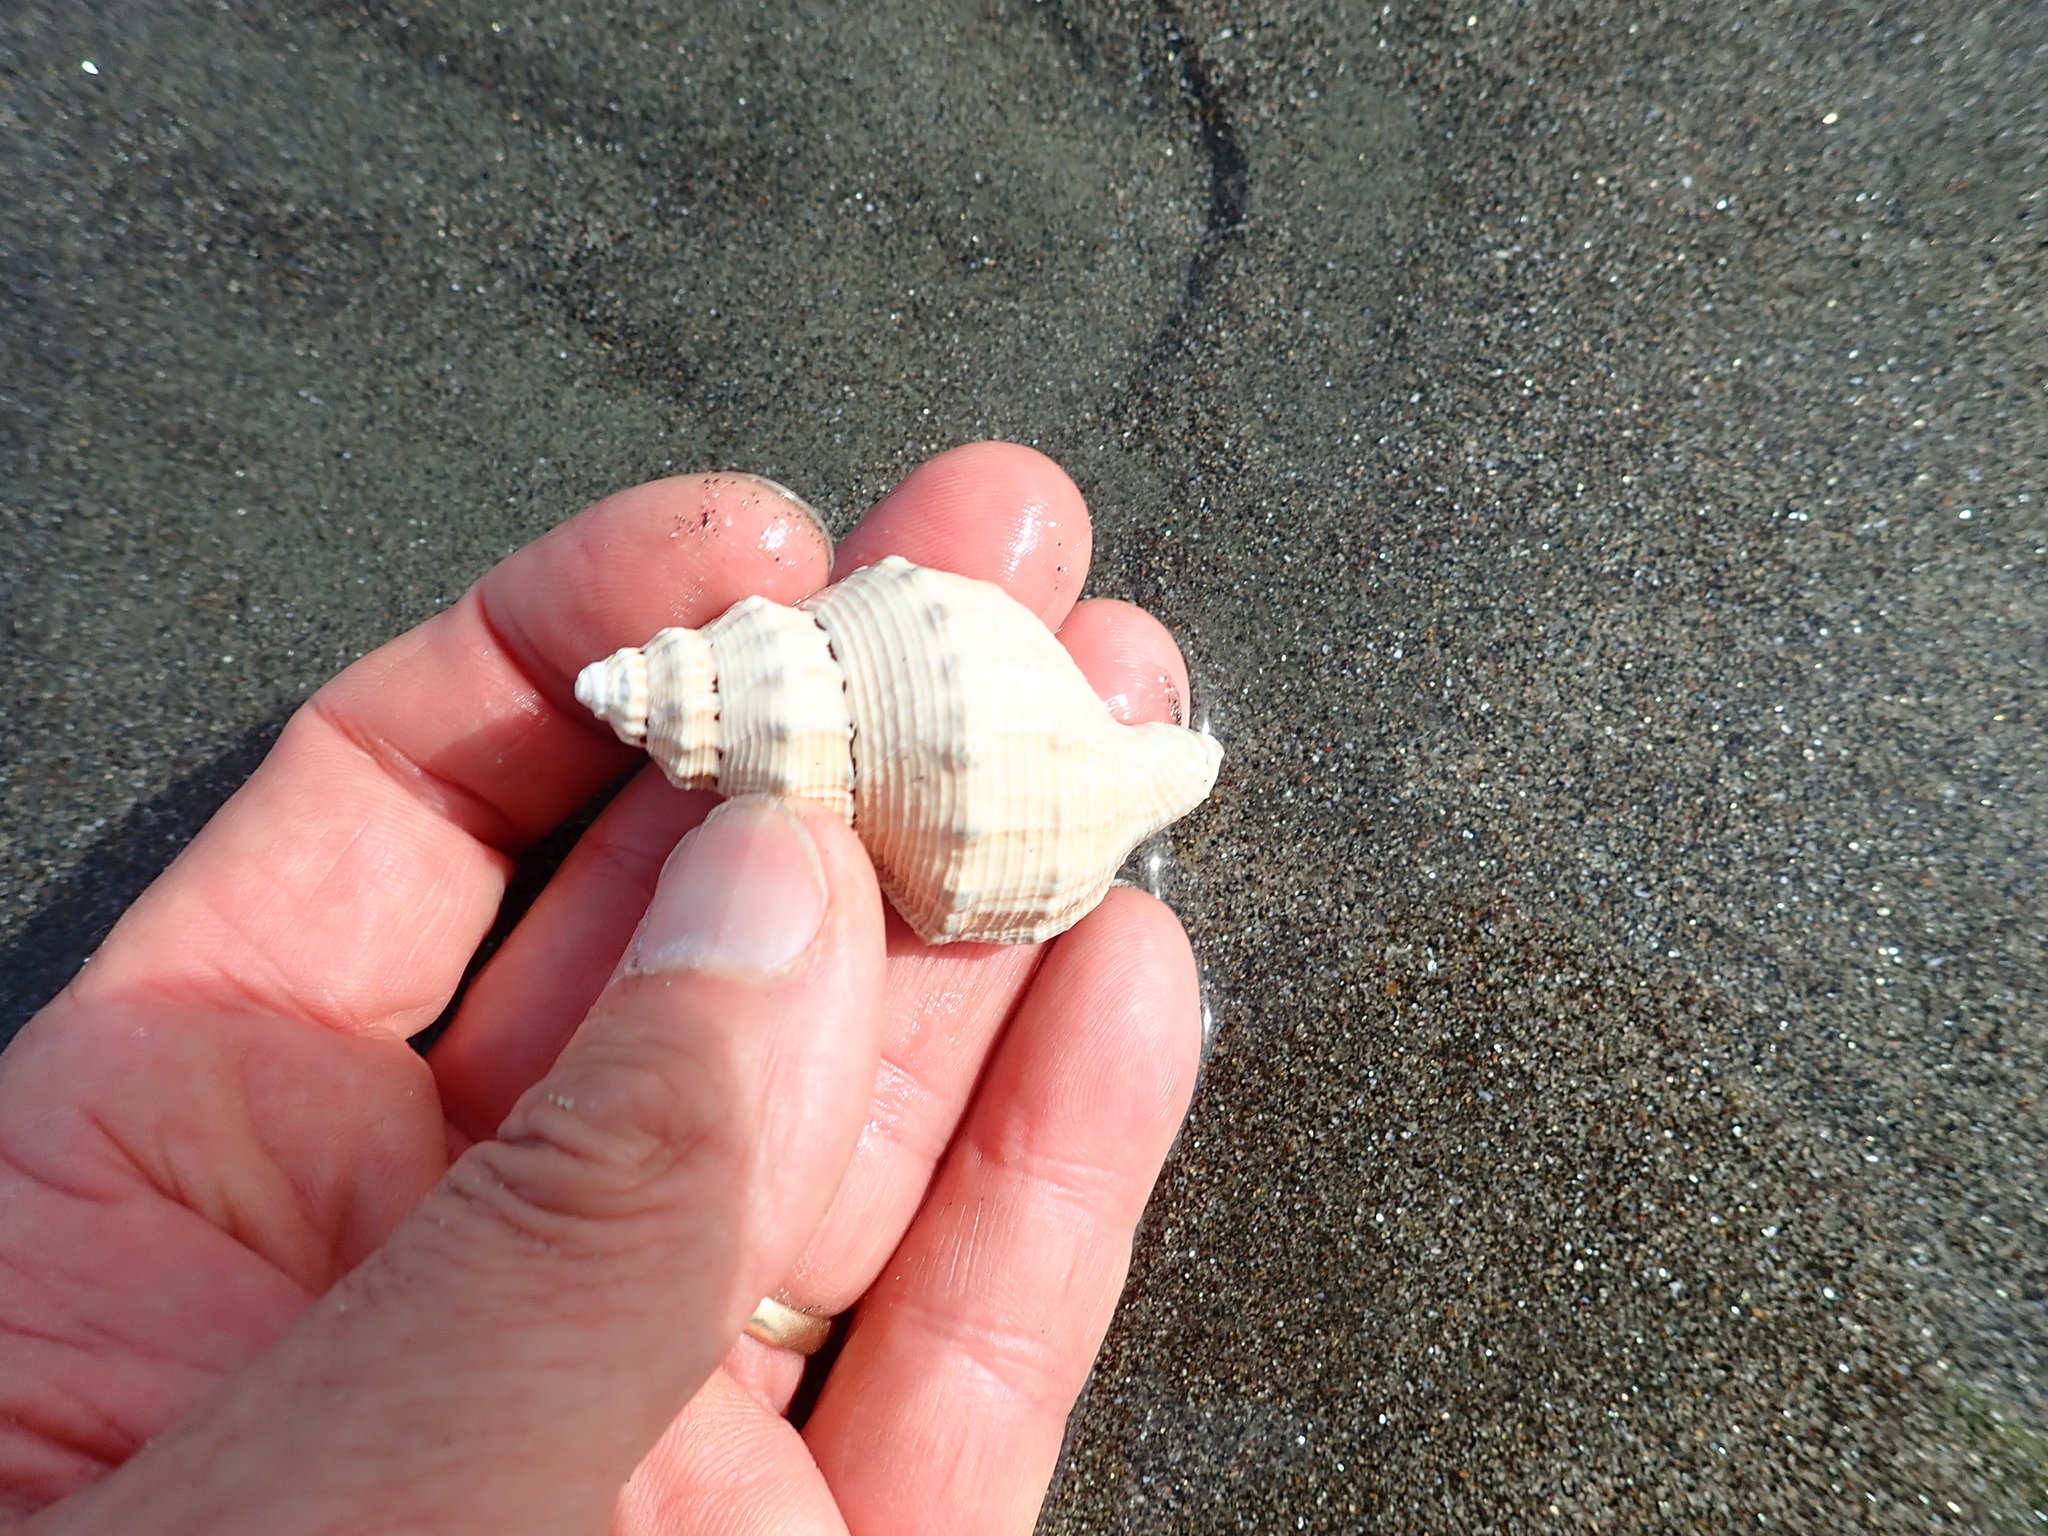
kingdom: Animalia
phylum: Mollusca
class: Gastropoda
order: Neogastropoda
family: Prosiphonidae
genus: Austrofusus
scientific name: Austrofusus glans
